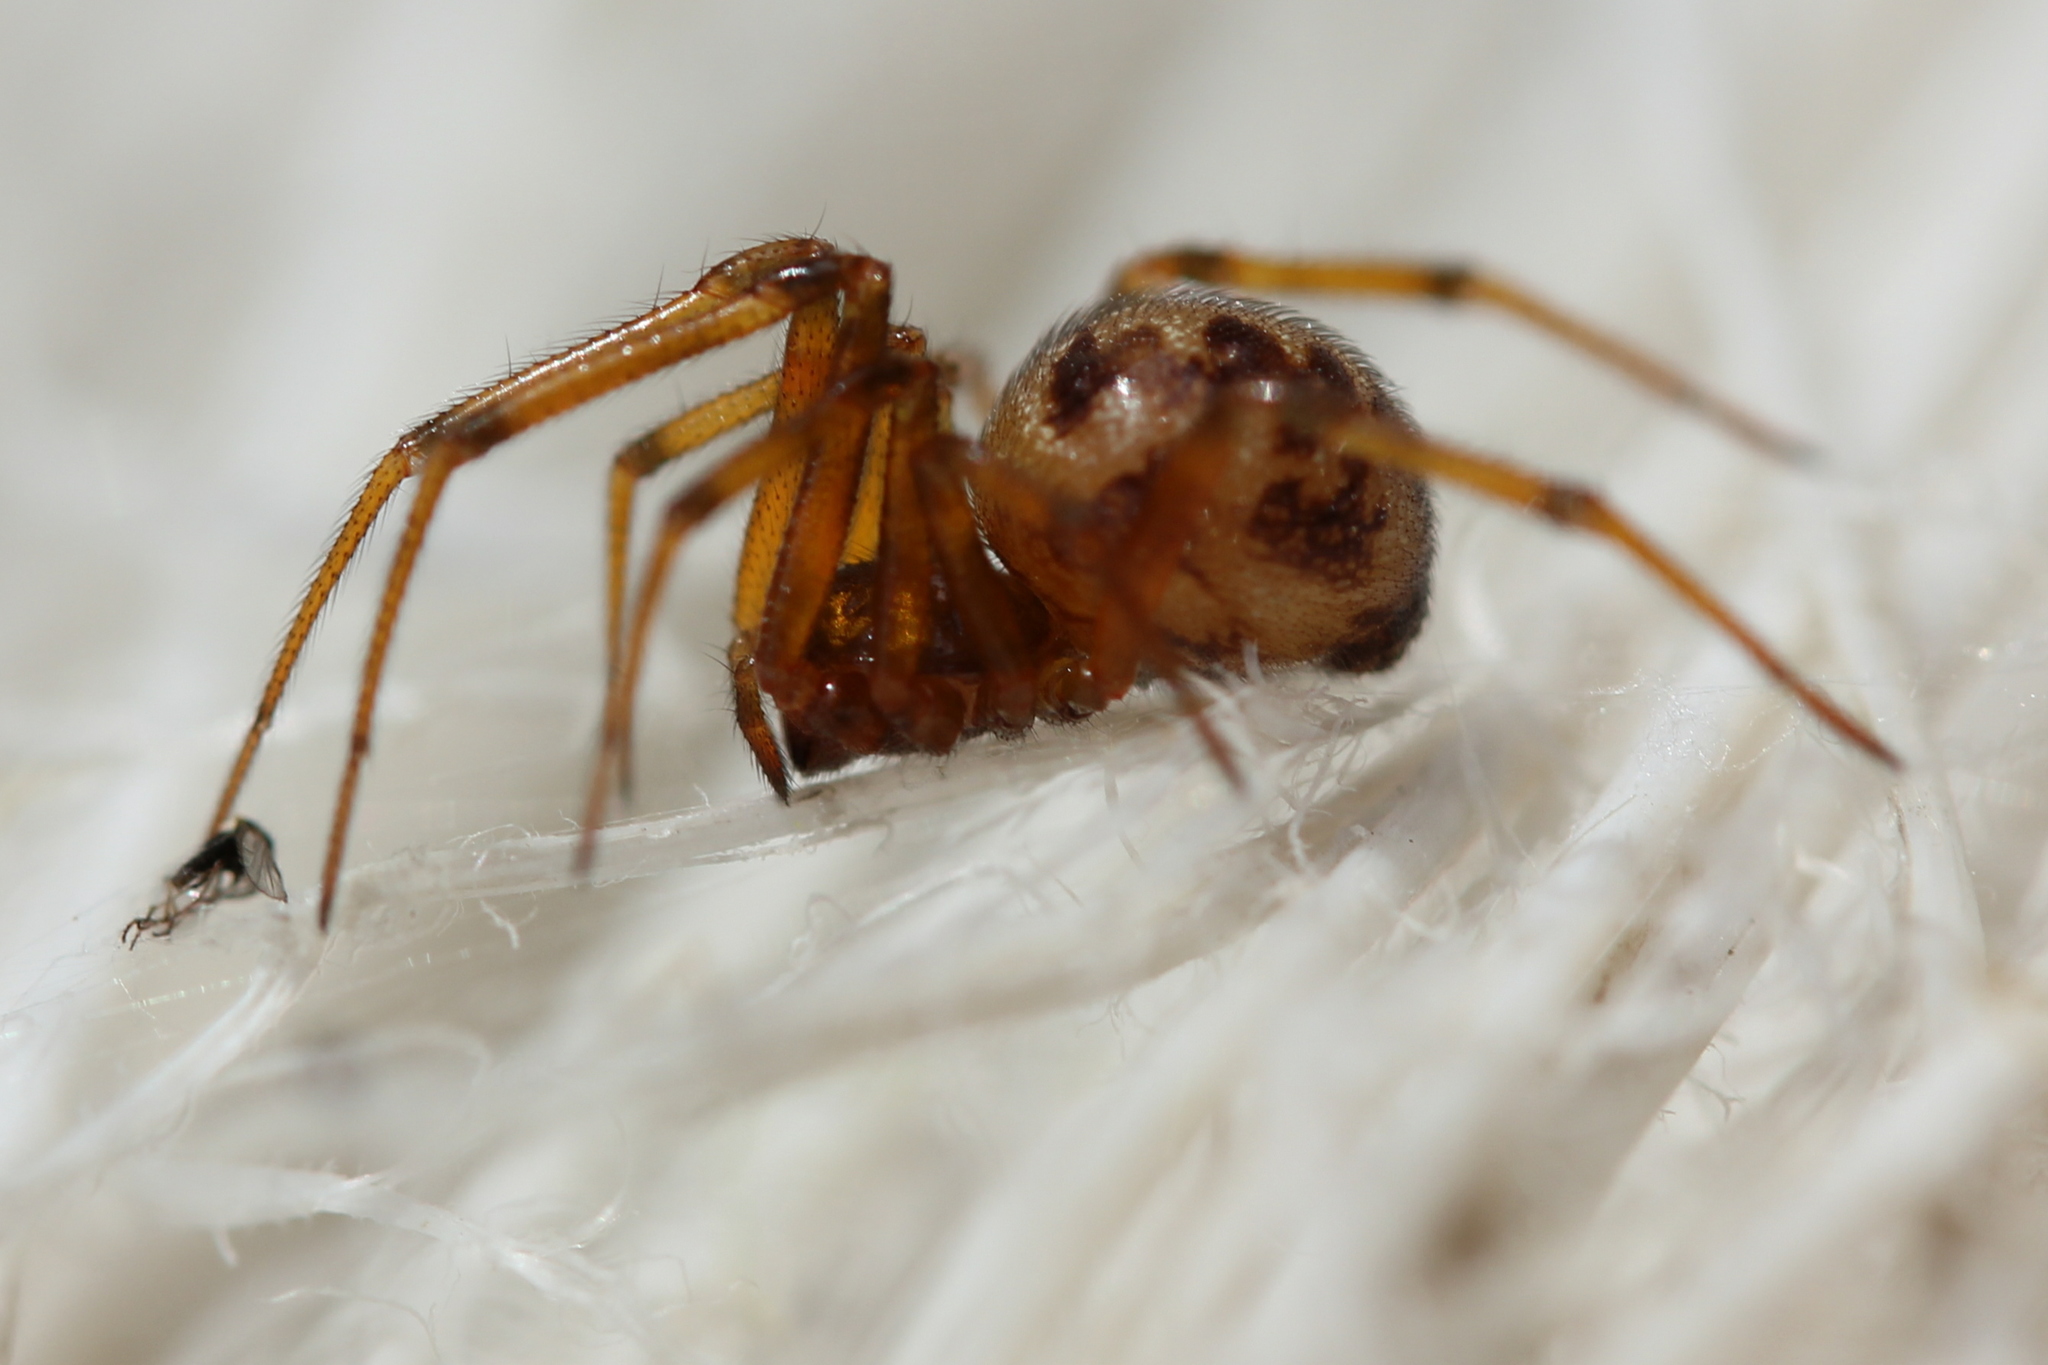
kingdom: Animalia
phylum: Arthropoda
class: Arachnida
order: Araneae
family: Theridiidae
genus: Steatoda
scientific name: Steatoda triangulosa
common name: Triangulate bud spider
